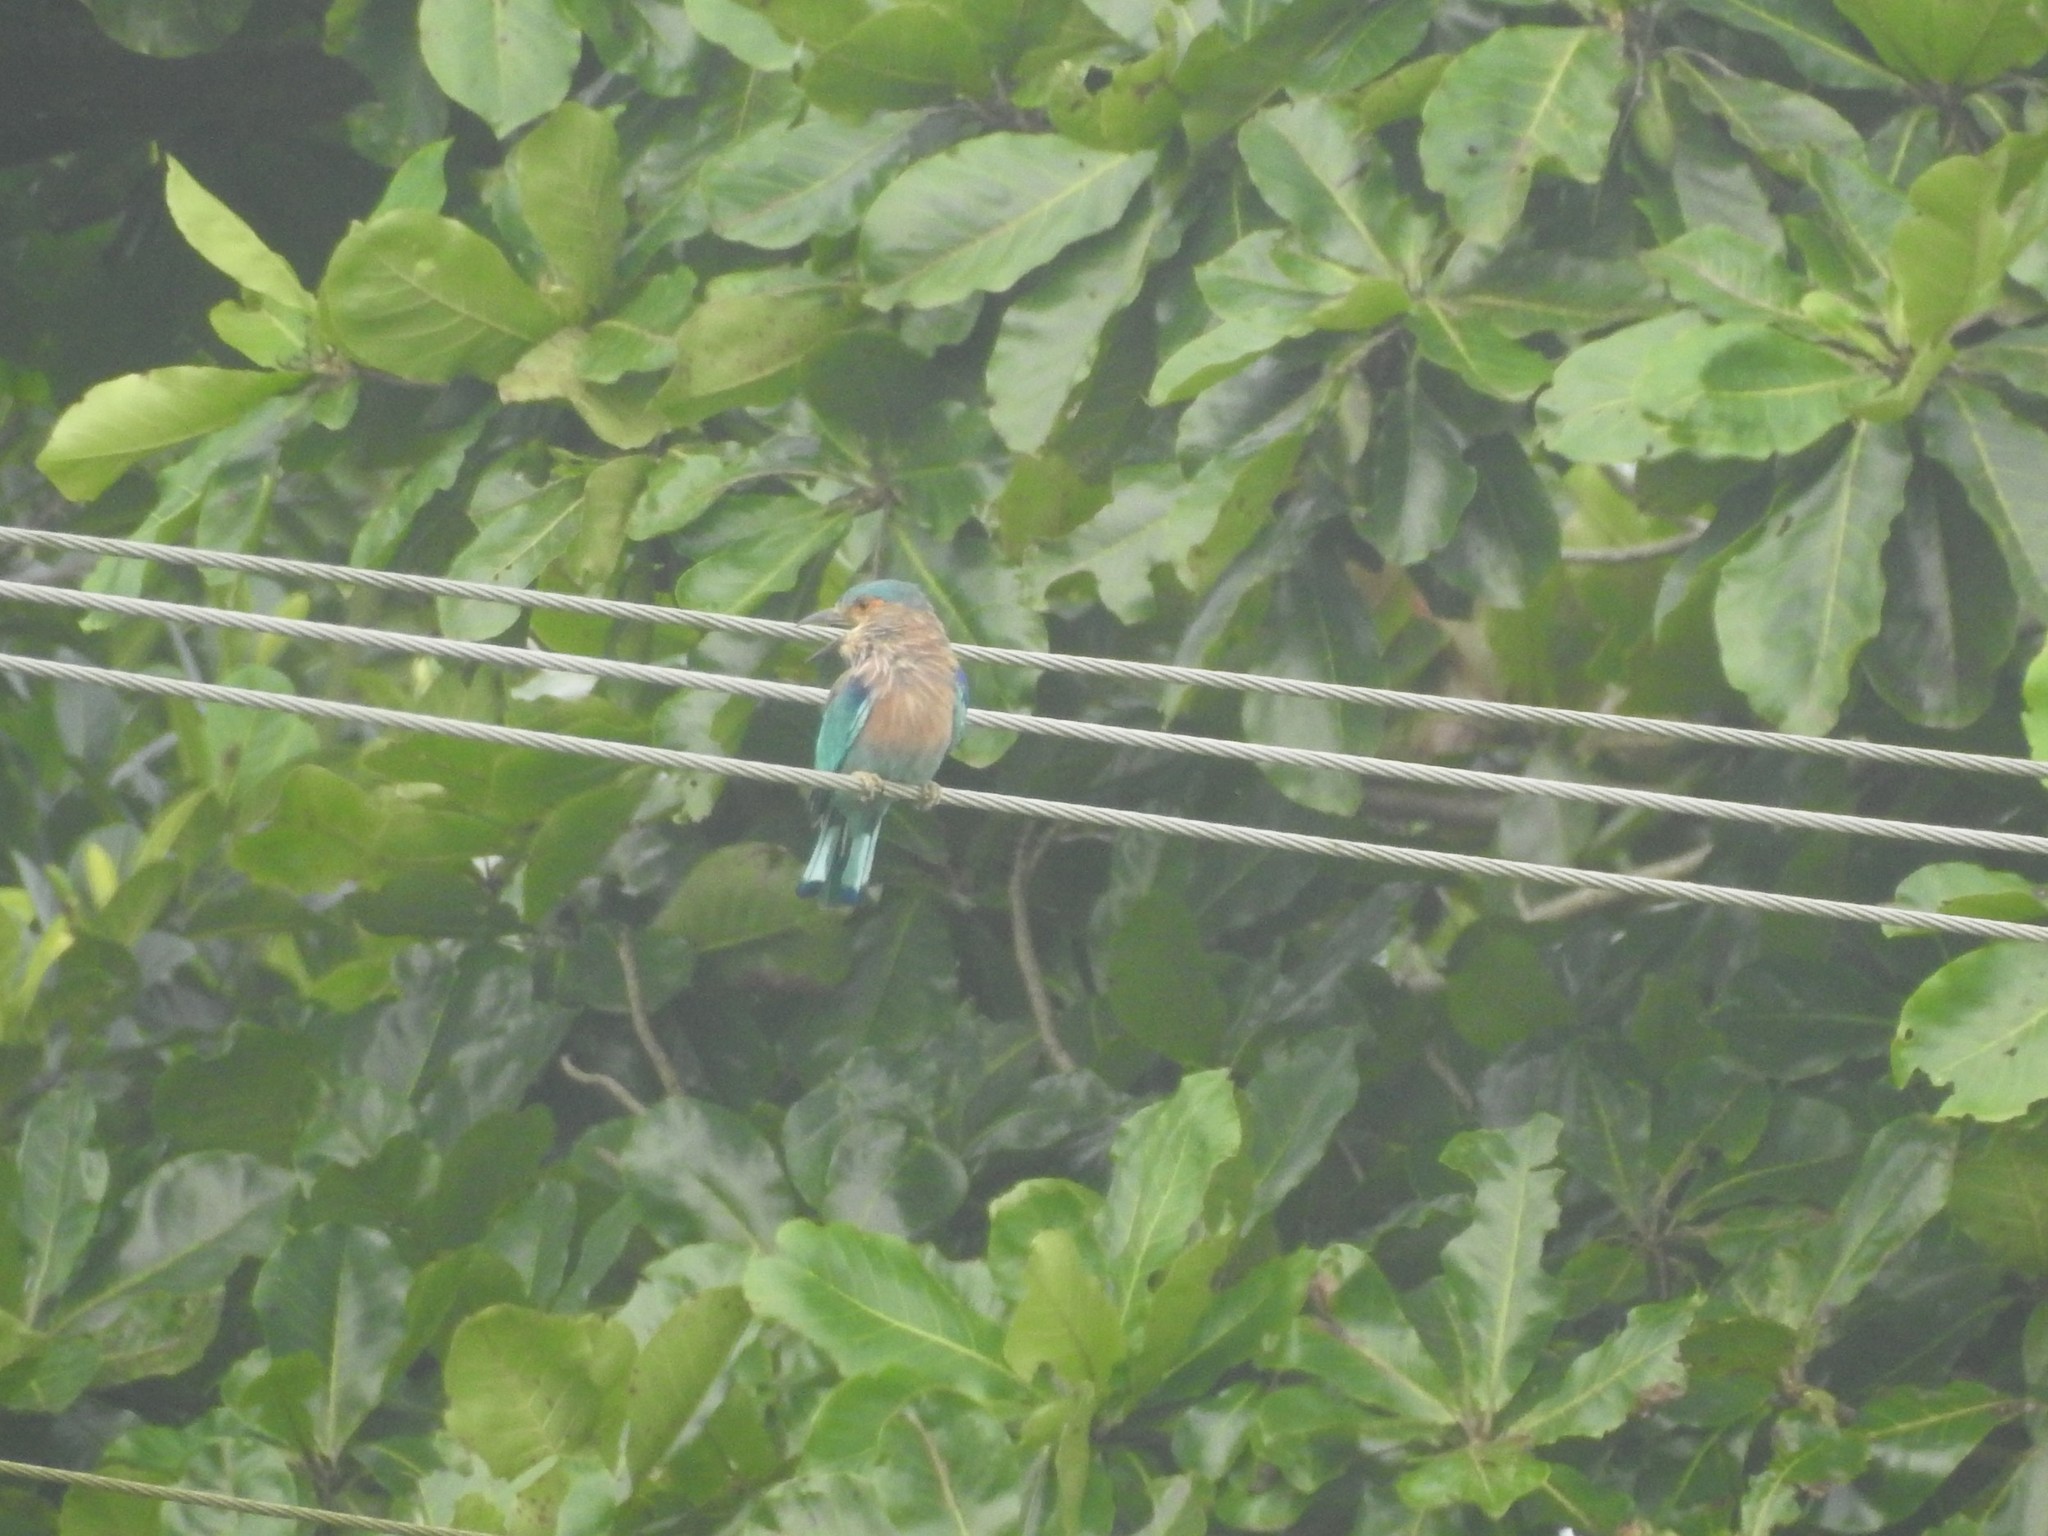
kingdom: Animalia
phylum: Chordata
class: Aves
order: Coraciiformes
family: Coraciidae
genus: Coracias
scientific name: Coracias benghalensis
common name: Indian roller
